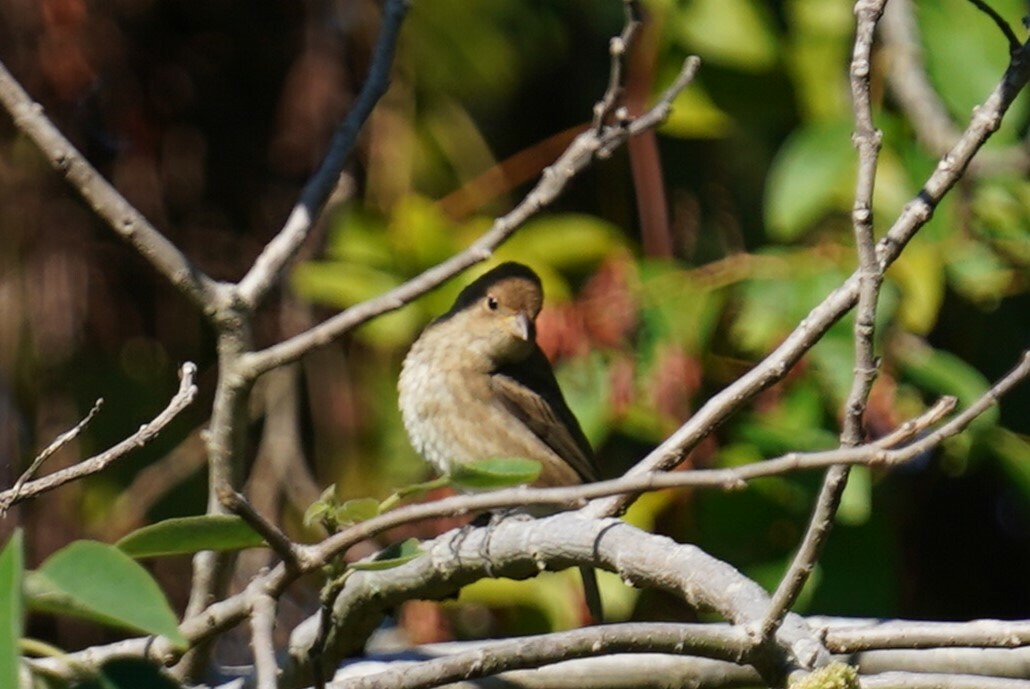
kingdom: Animalia
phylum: Chordata
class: Aves
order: Passeriformes
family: Cardinalidae
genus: Passerina
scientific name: Passerina cyanea
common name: Indigo bunting
